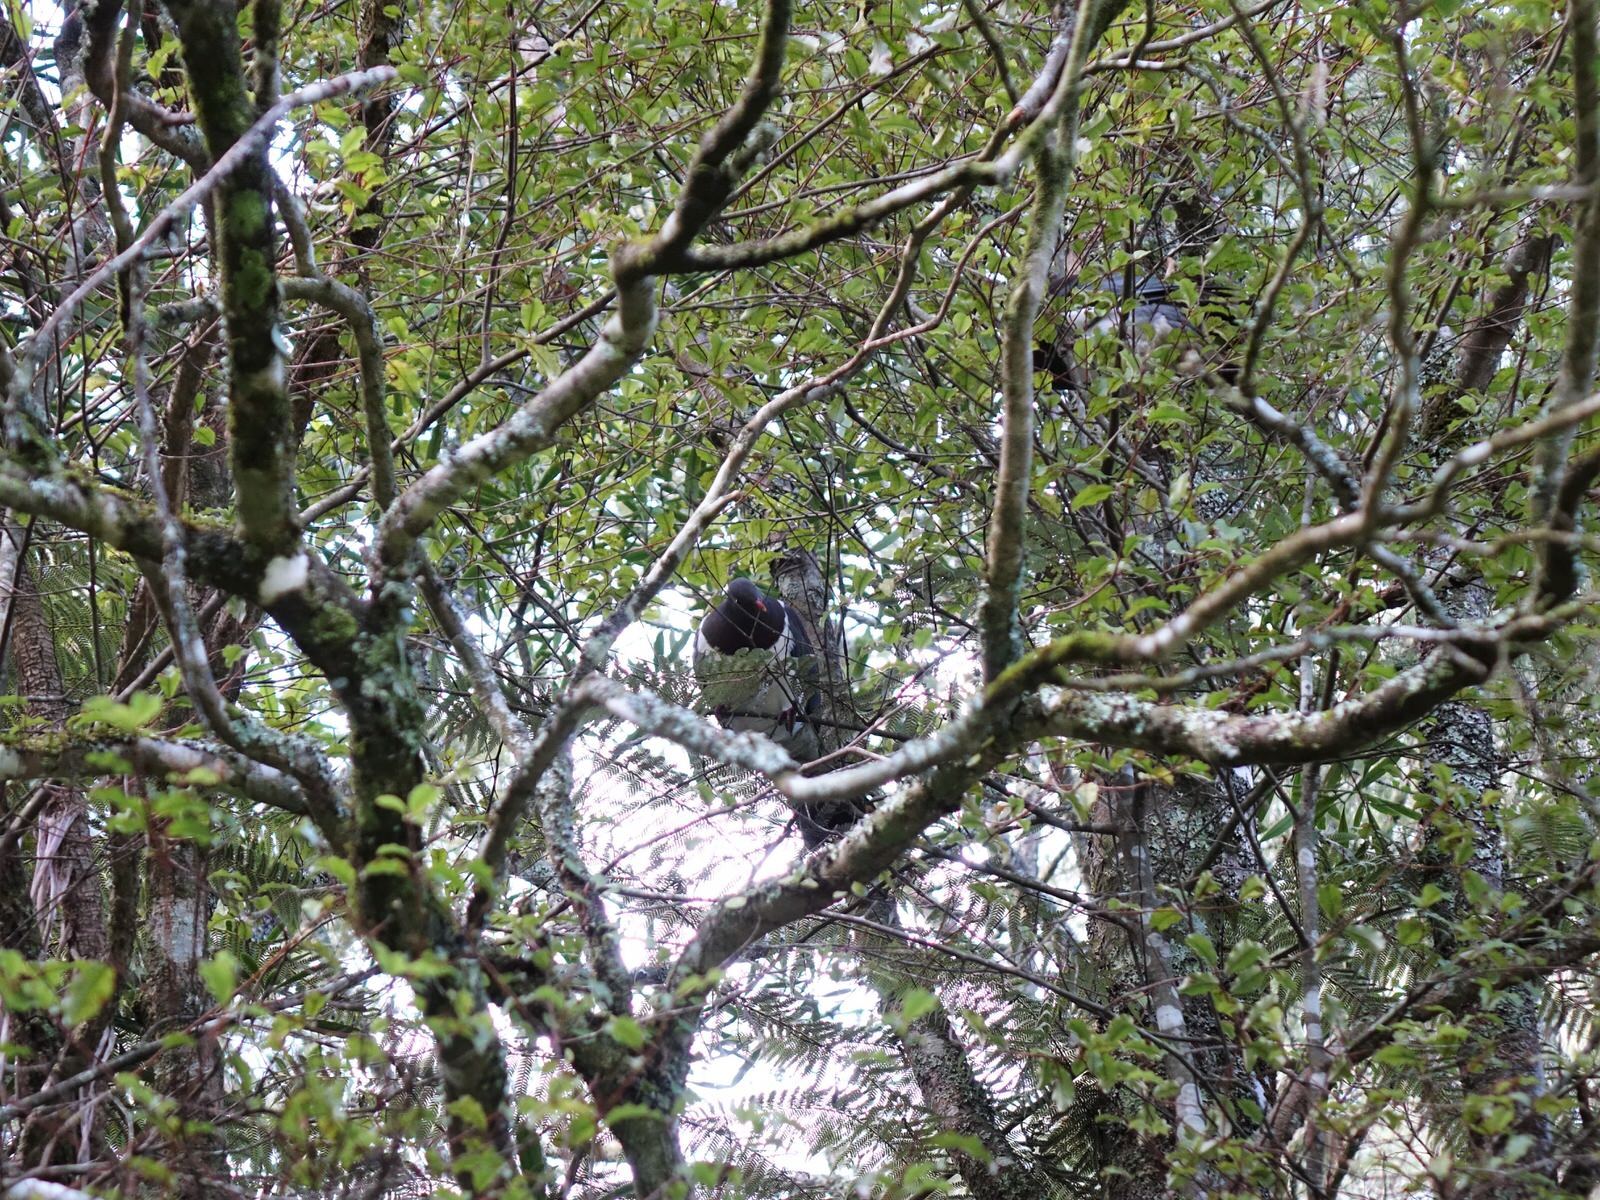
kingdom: Animalia
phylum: Chordata
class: Aves
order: Columbiformes
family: Columbidae
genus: Hemiphaga
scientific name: Hemiphaga novaeseelandiae
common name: New zealand pigeon
